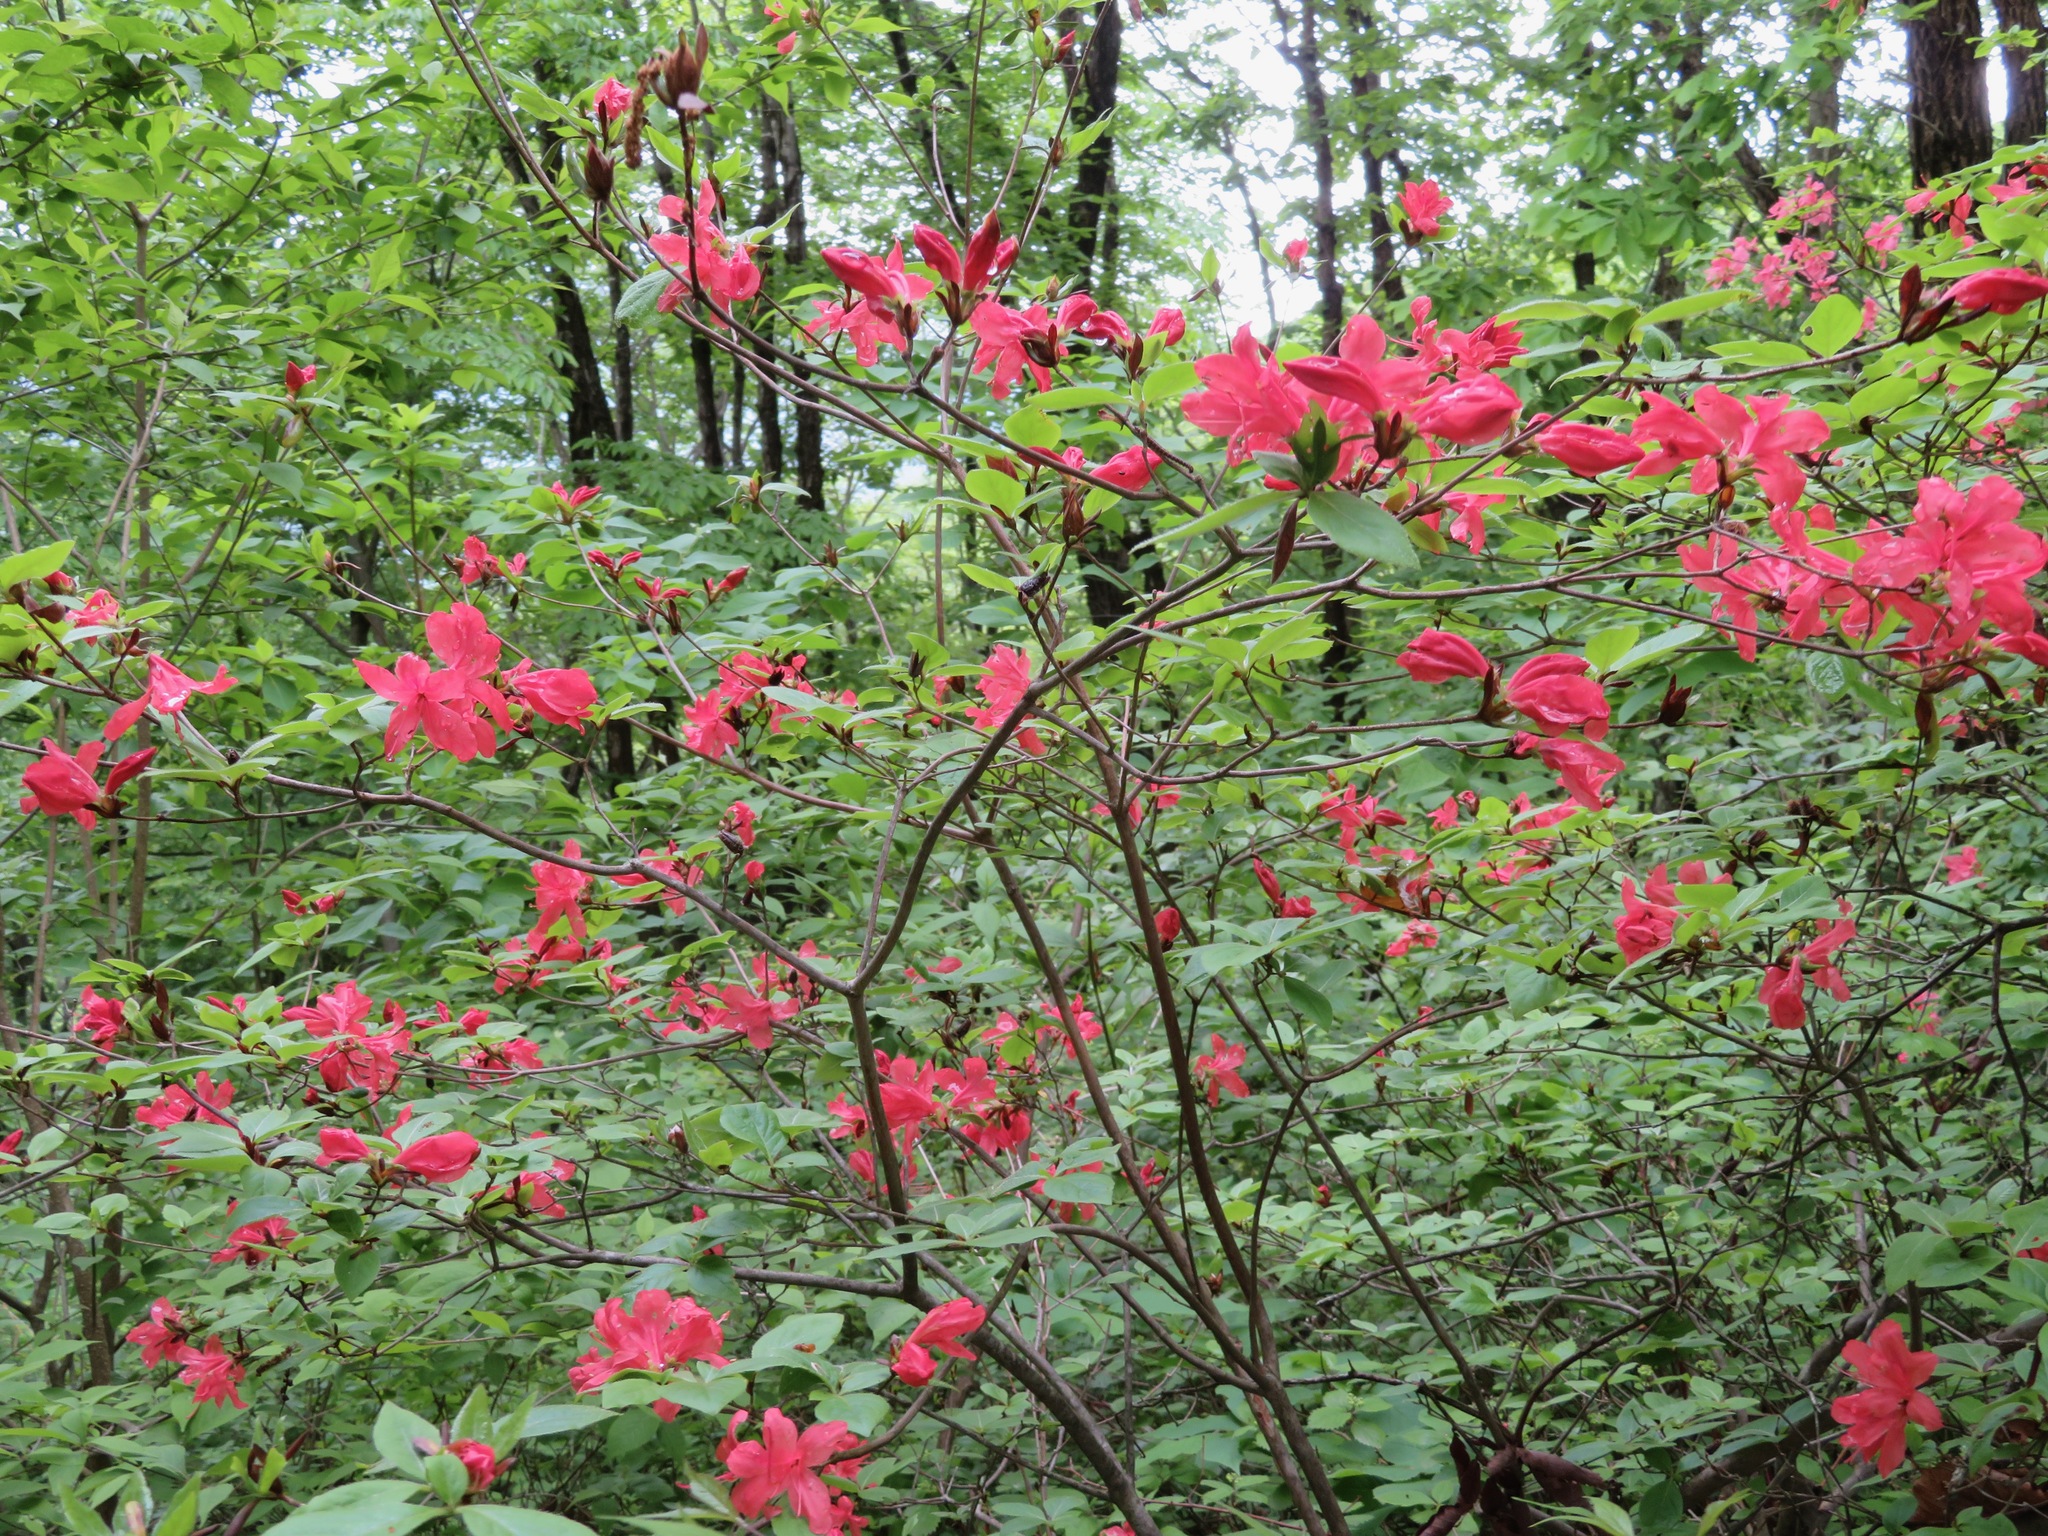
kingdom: Plantae
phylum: Tracheophyta
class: Magnoliopsida
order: Ericales
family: Ericaceae
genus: Rhododendron
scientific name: Rhododendron kaempferi
